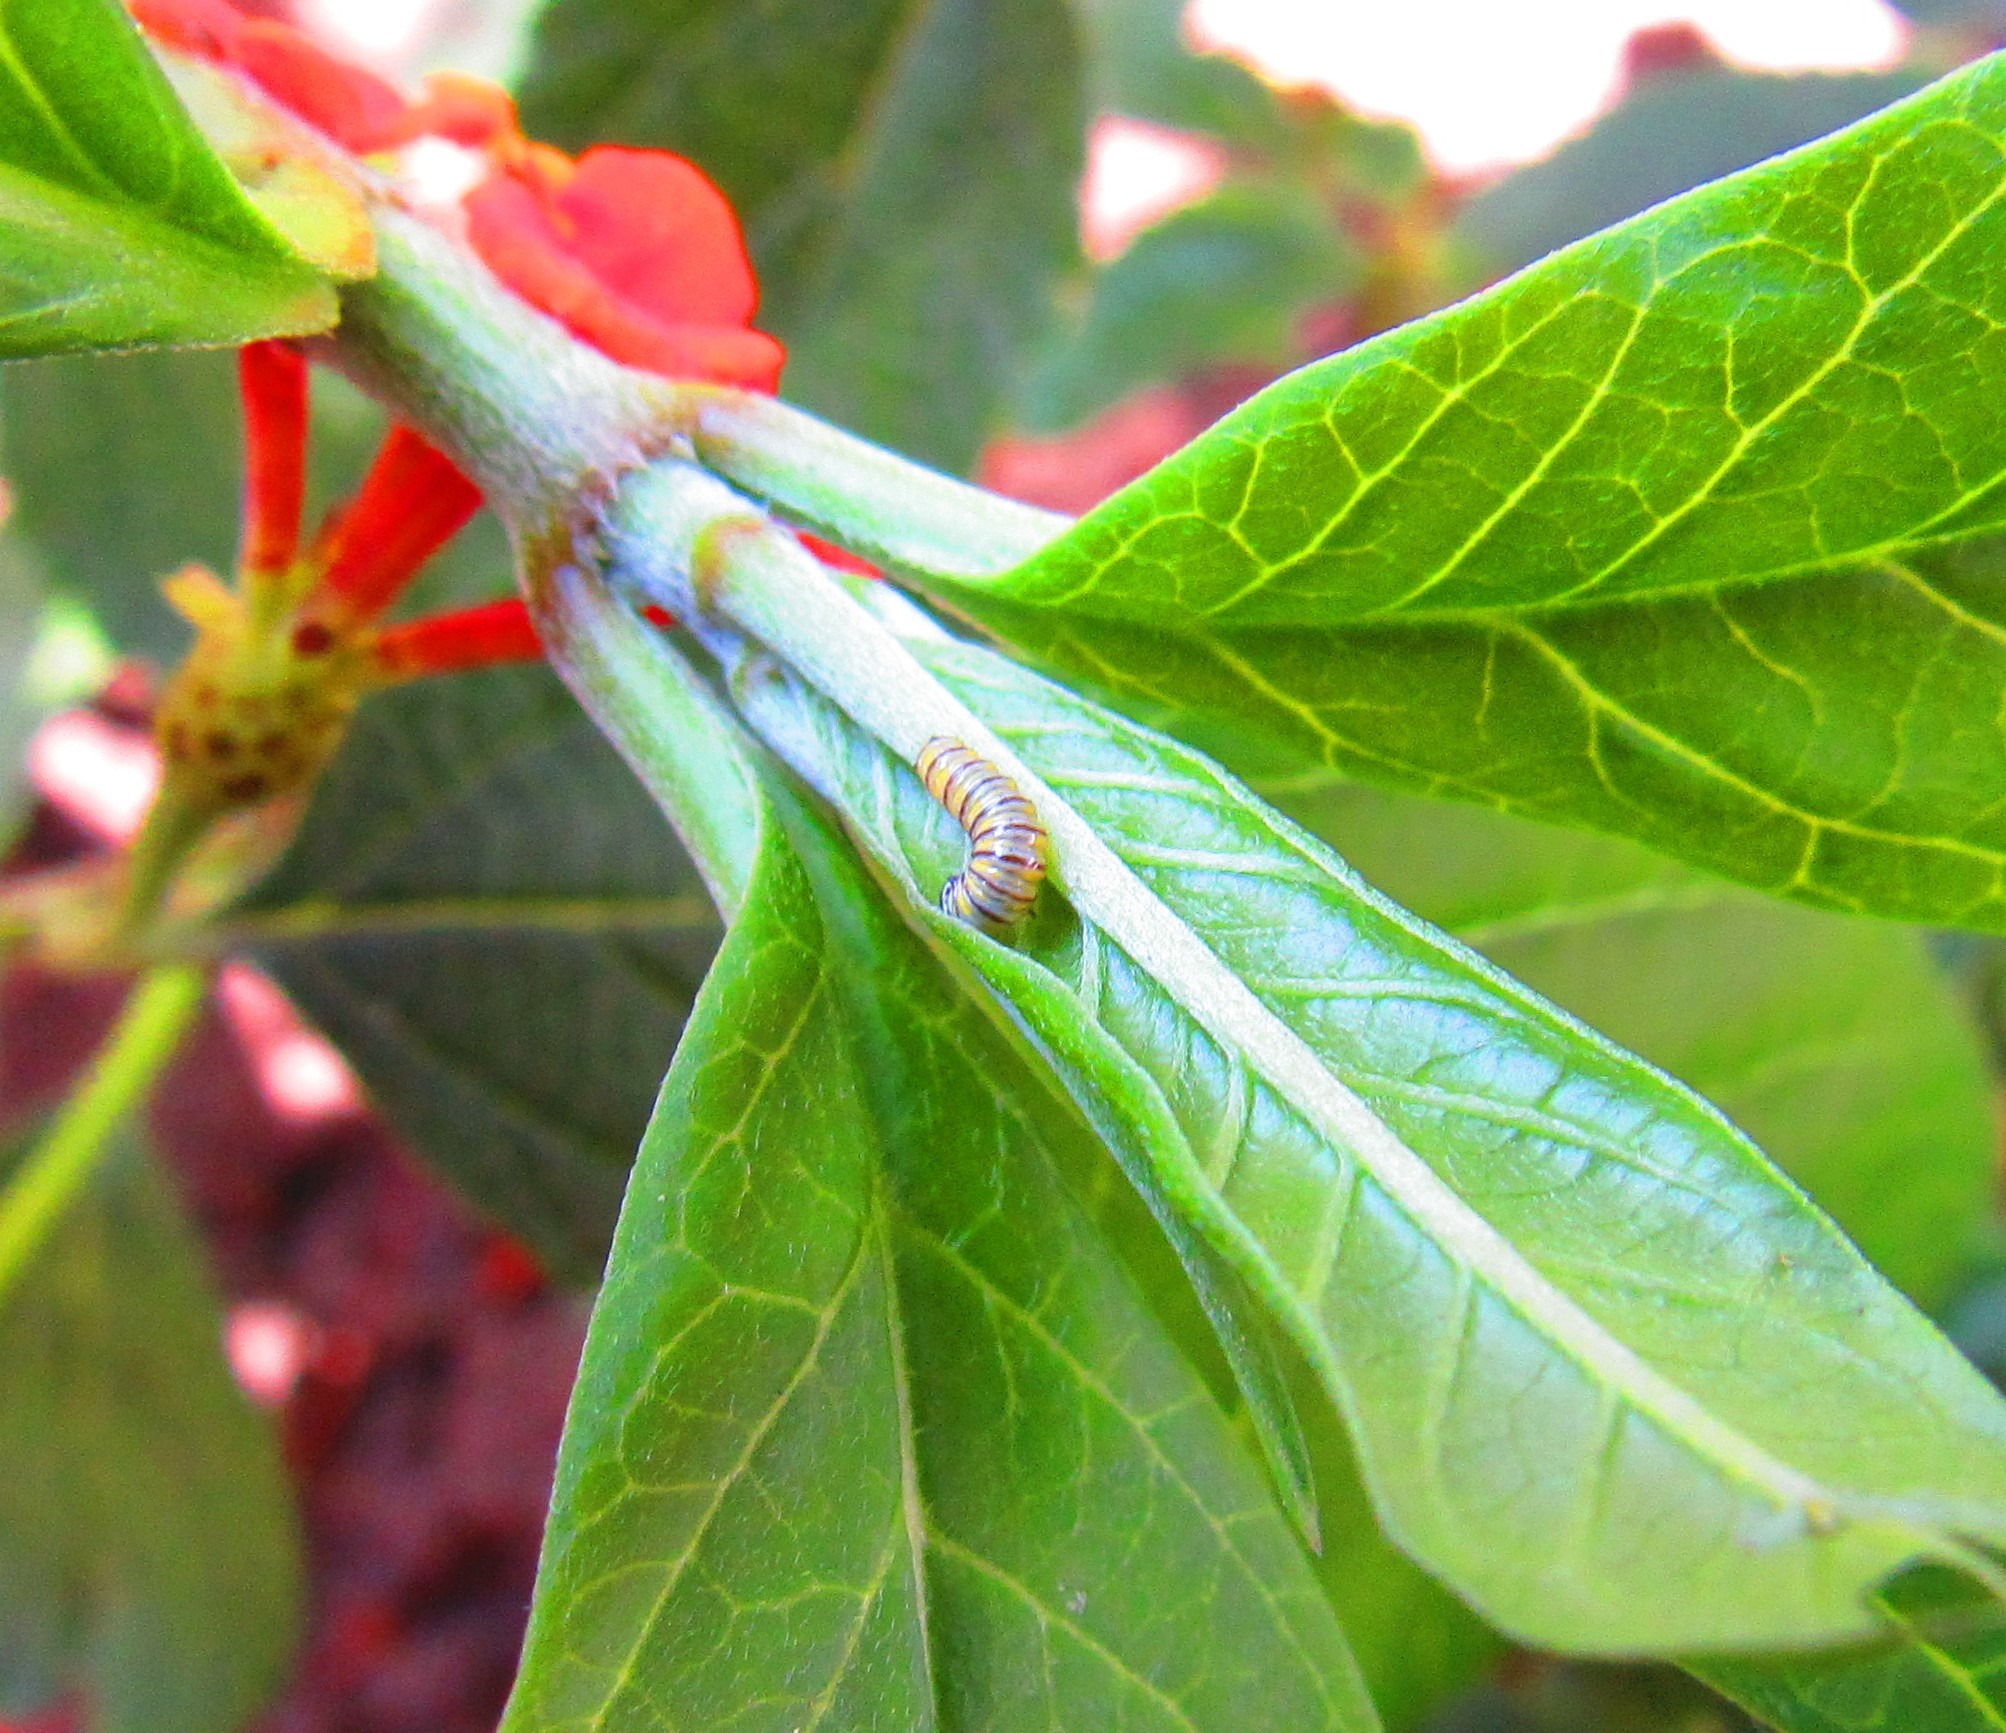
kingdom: Animalia
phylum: Arthropoda
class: Insecta
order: Lepidoptera
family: Nymphalidae
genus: Danaus
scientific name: Danaus plexippus
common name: Monarch
